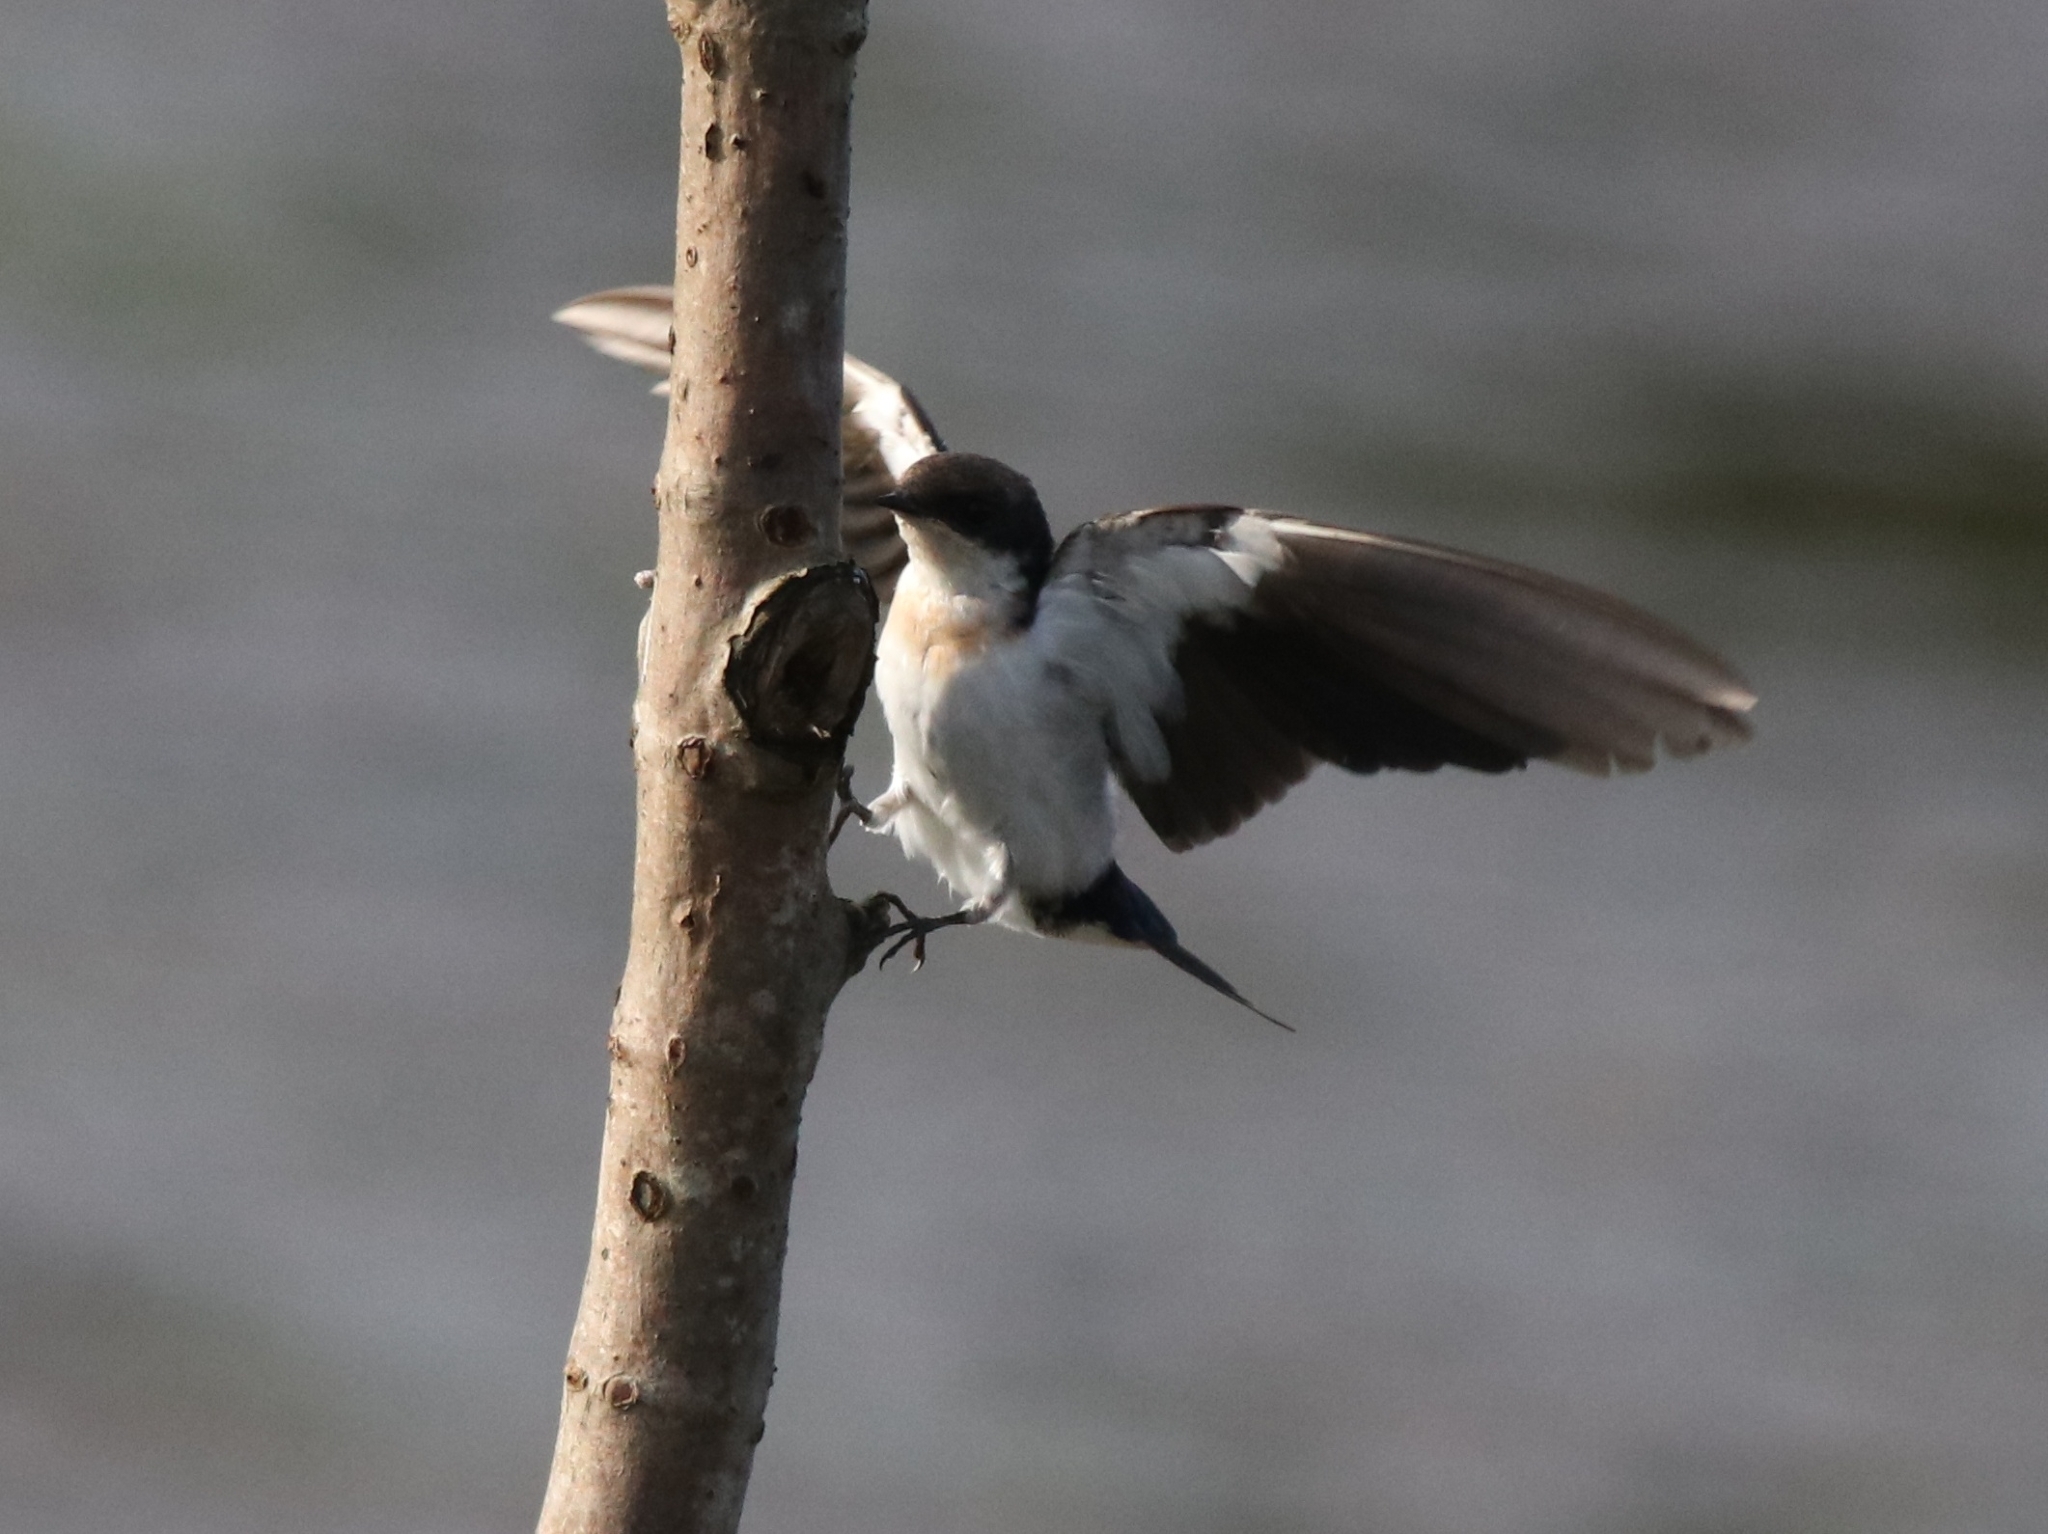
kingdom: Animalia
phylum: Chordata
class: Aves
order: Passeriformes
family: Hirundinidae
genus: Hirundo
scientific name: Hirundo smithii
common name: Wire-tailed swallow
